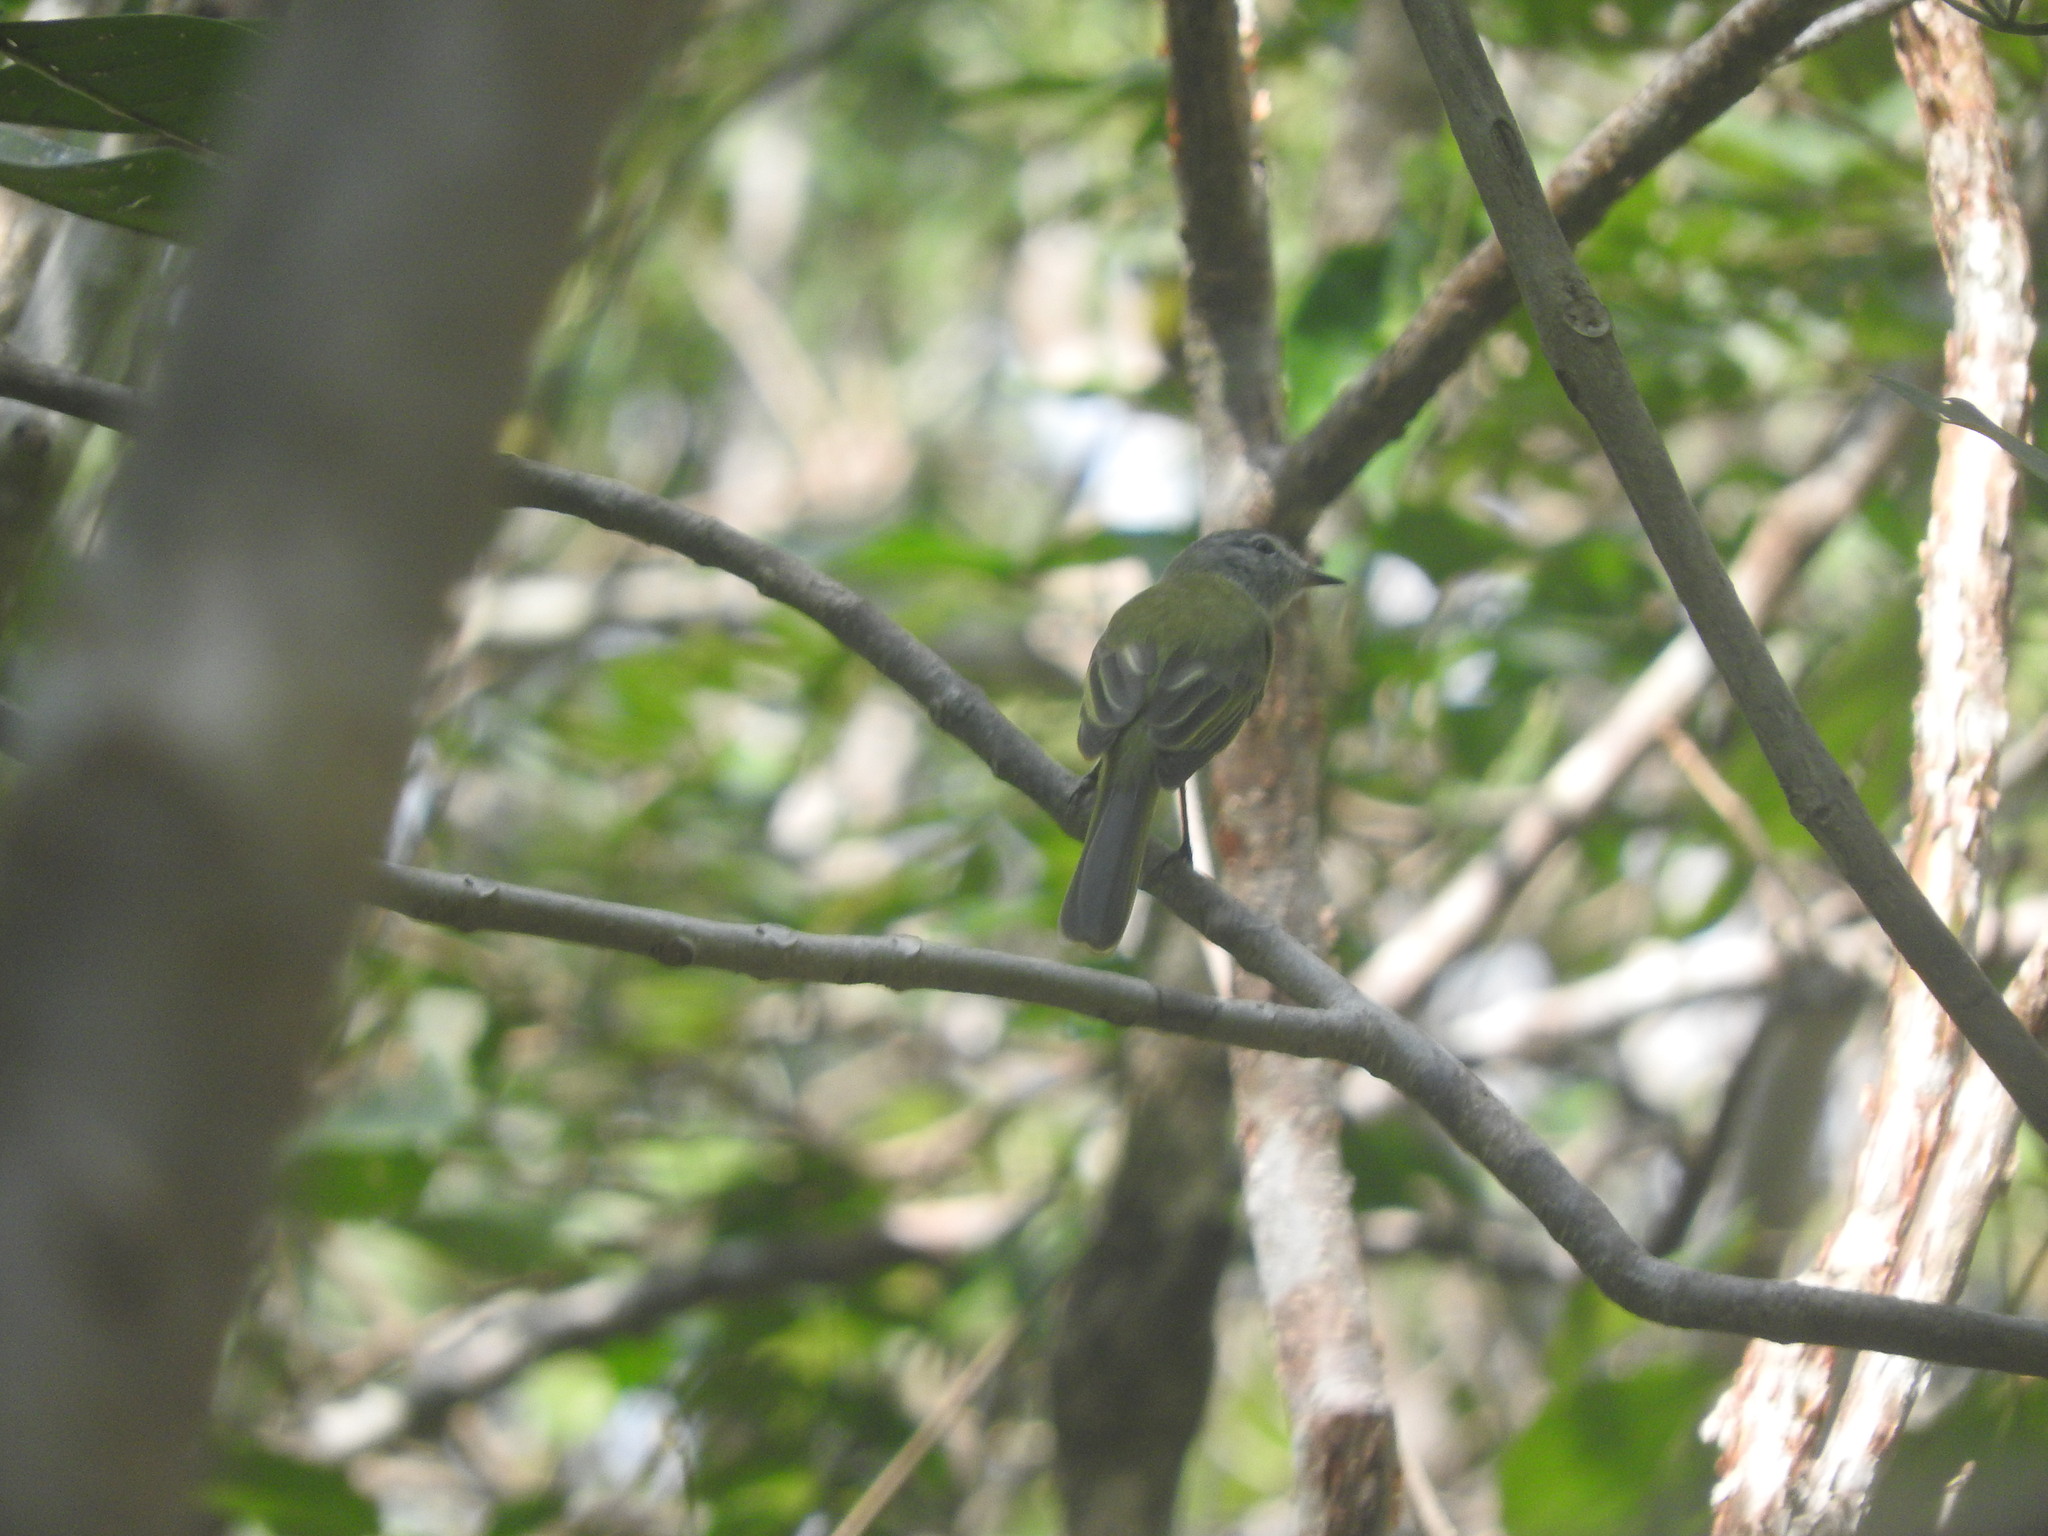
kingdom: Animalia
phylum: Chordata
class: Aves
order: Passeriformes
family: Tyrannidae
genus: Myiopagis
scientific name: Myiopagis viridicata
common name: Greenish elaenia
